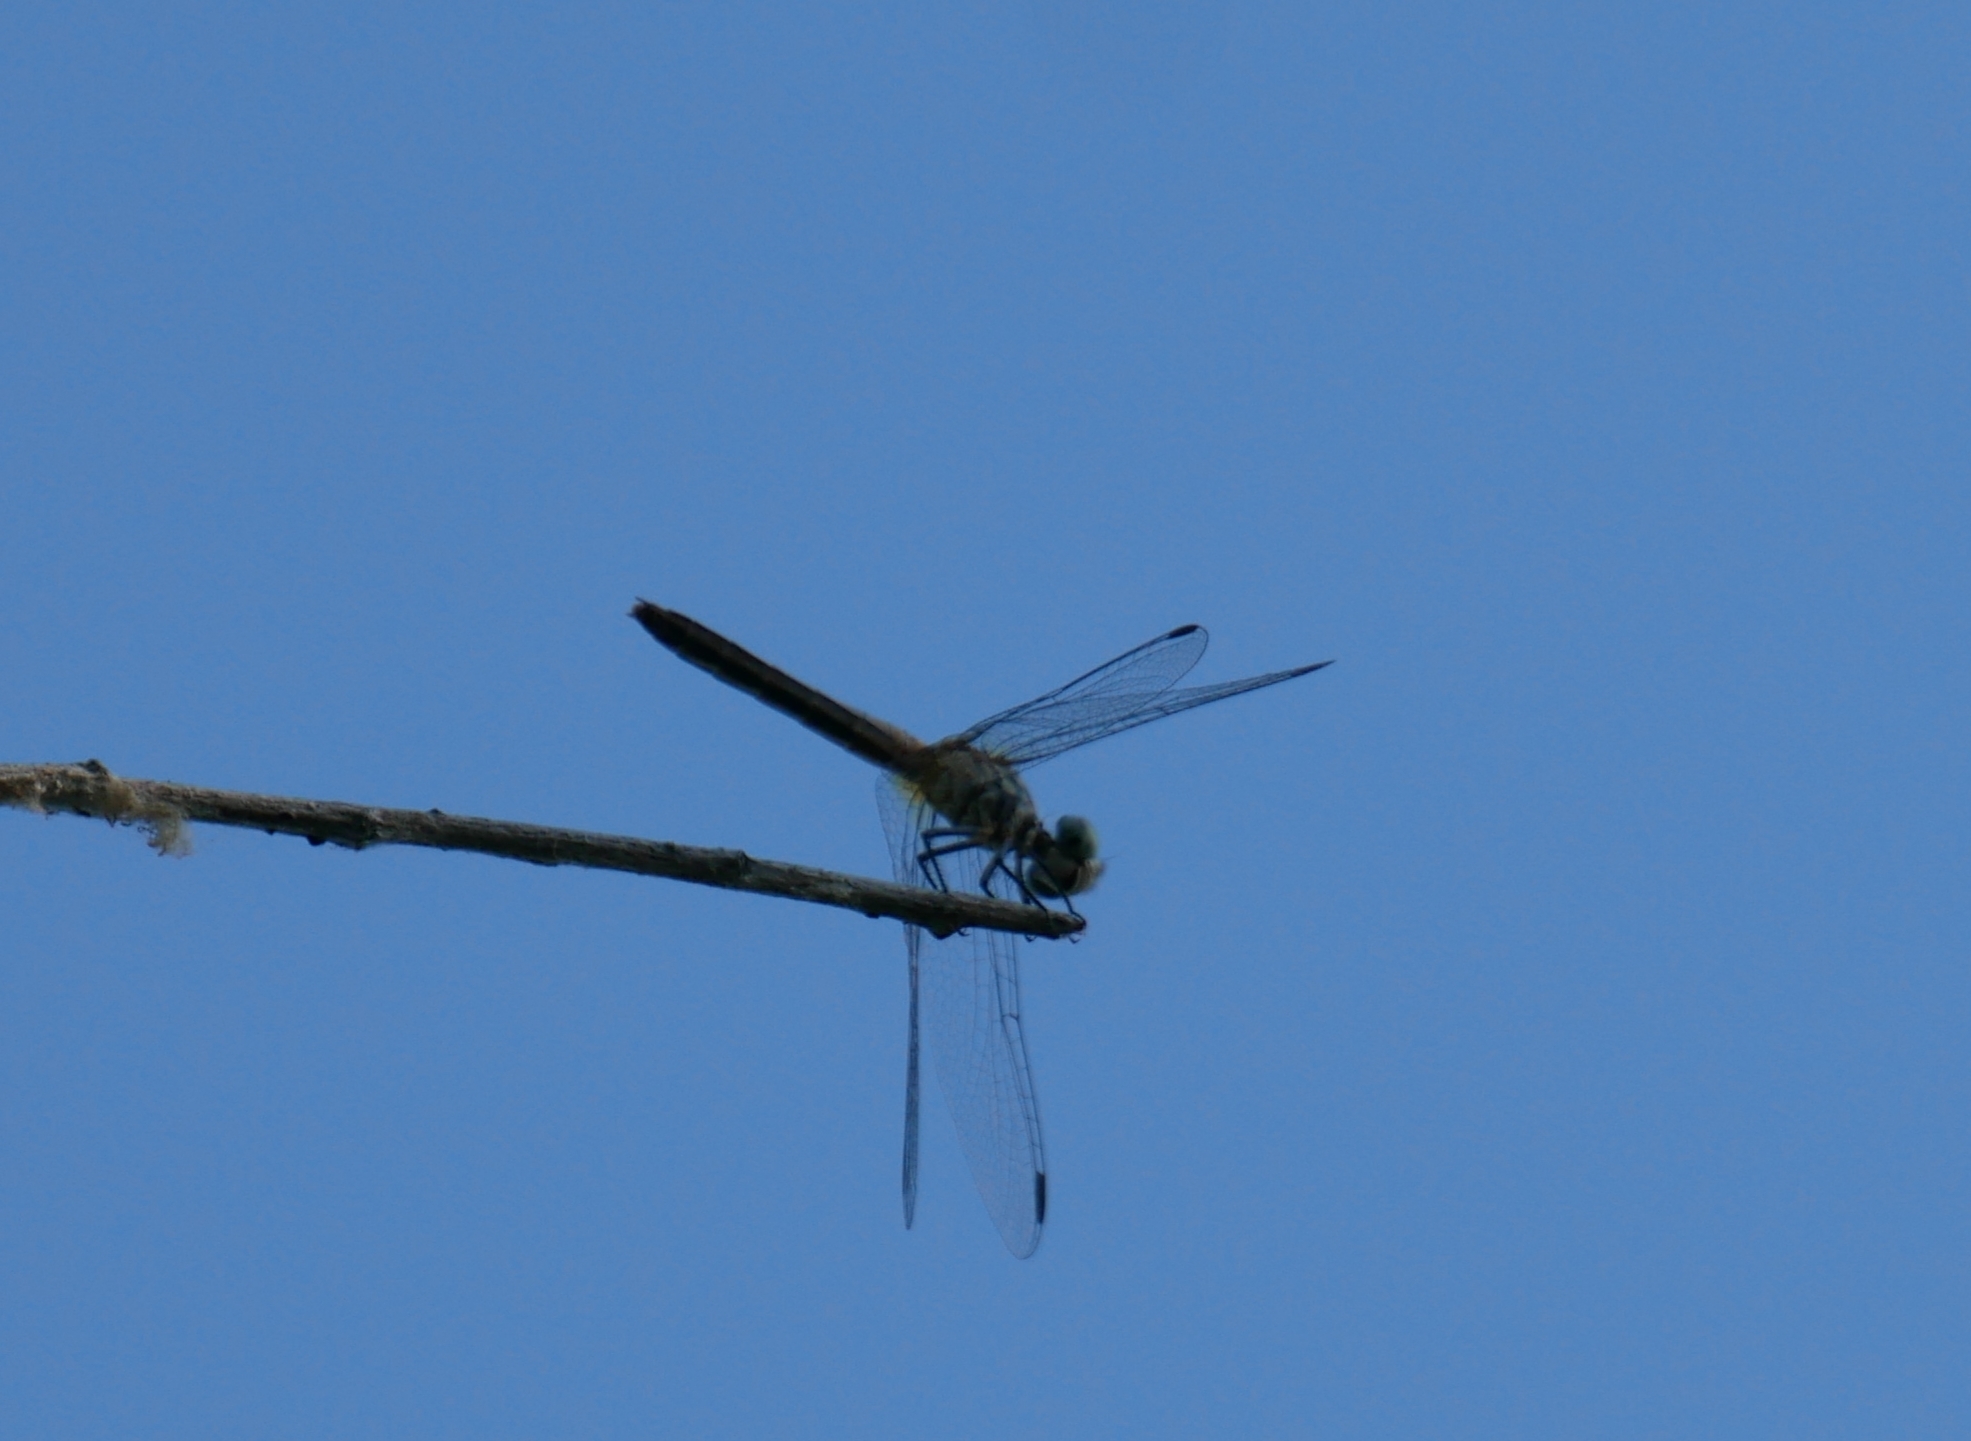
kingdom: Animalia
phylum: Arthropoda
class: Insecta
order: Odonata
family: Libellulidae
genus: Pachydiplax
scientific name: Pachydiplax longipennis
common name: Blue dasher
